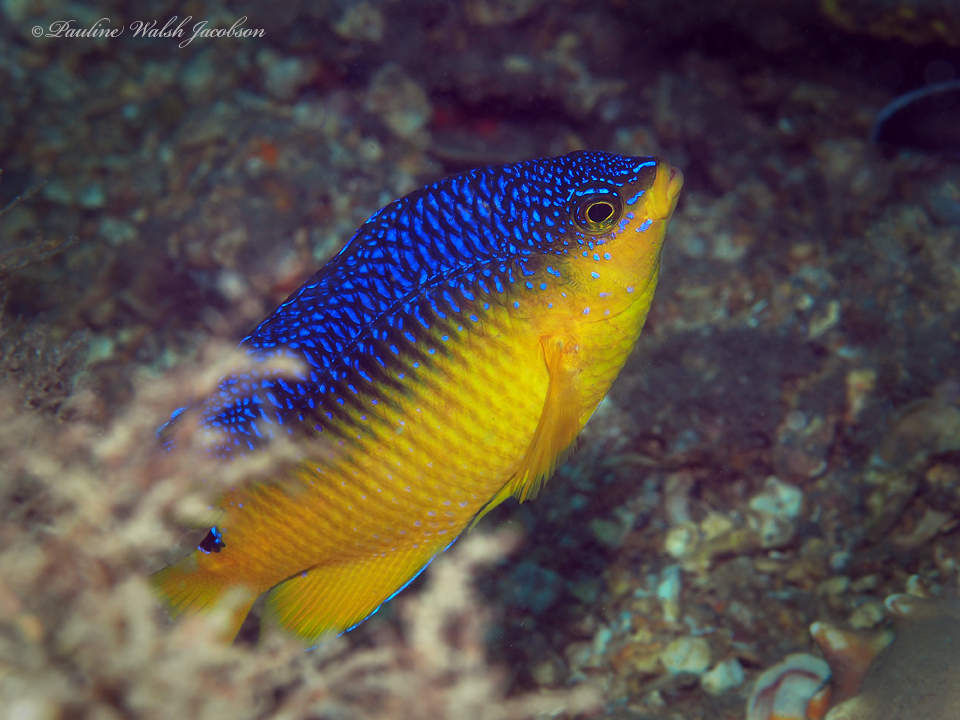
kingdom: Animalia
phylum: Chordata
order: Perciformes
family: Pomacentridae
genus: Stegastes
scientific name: Stegastes xanthurus
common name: Cocoa damselfish
